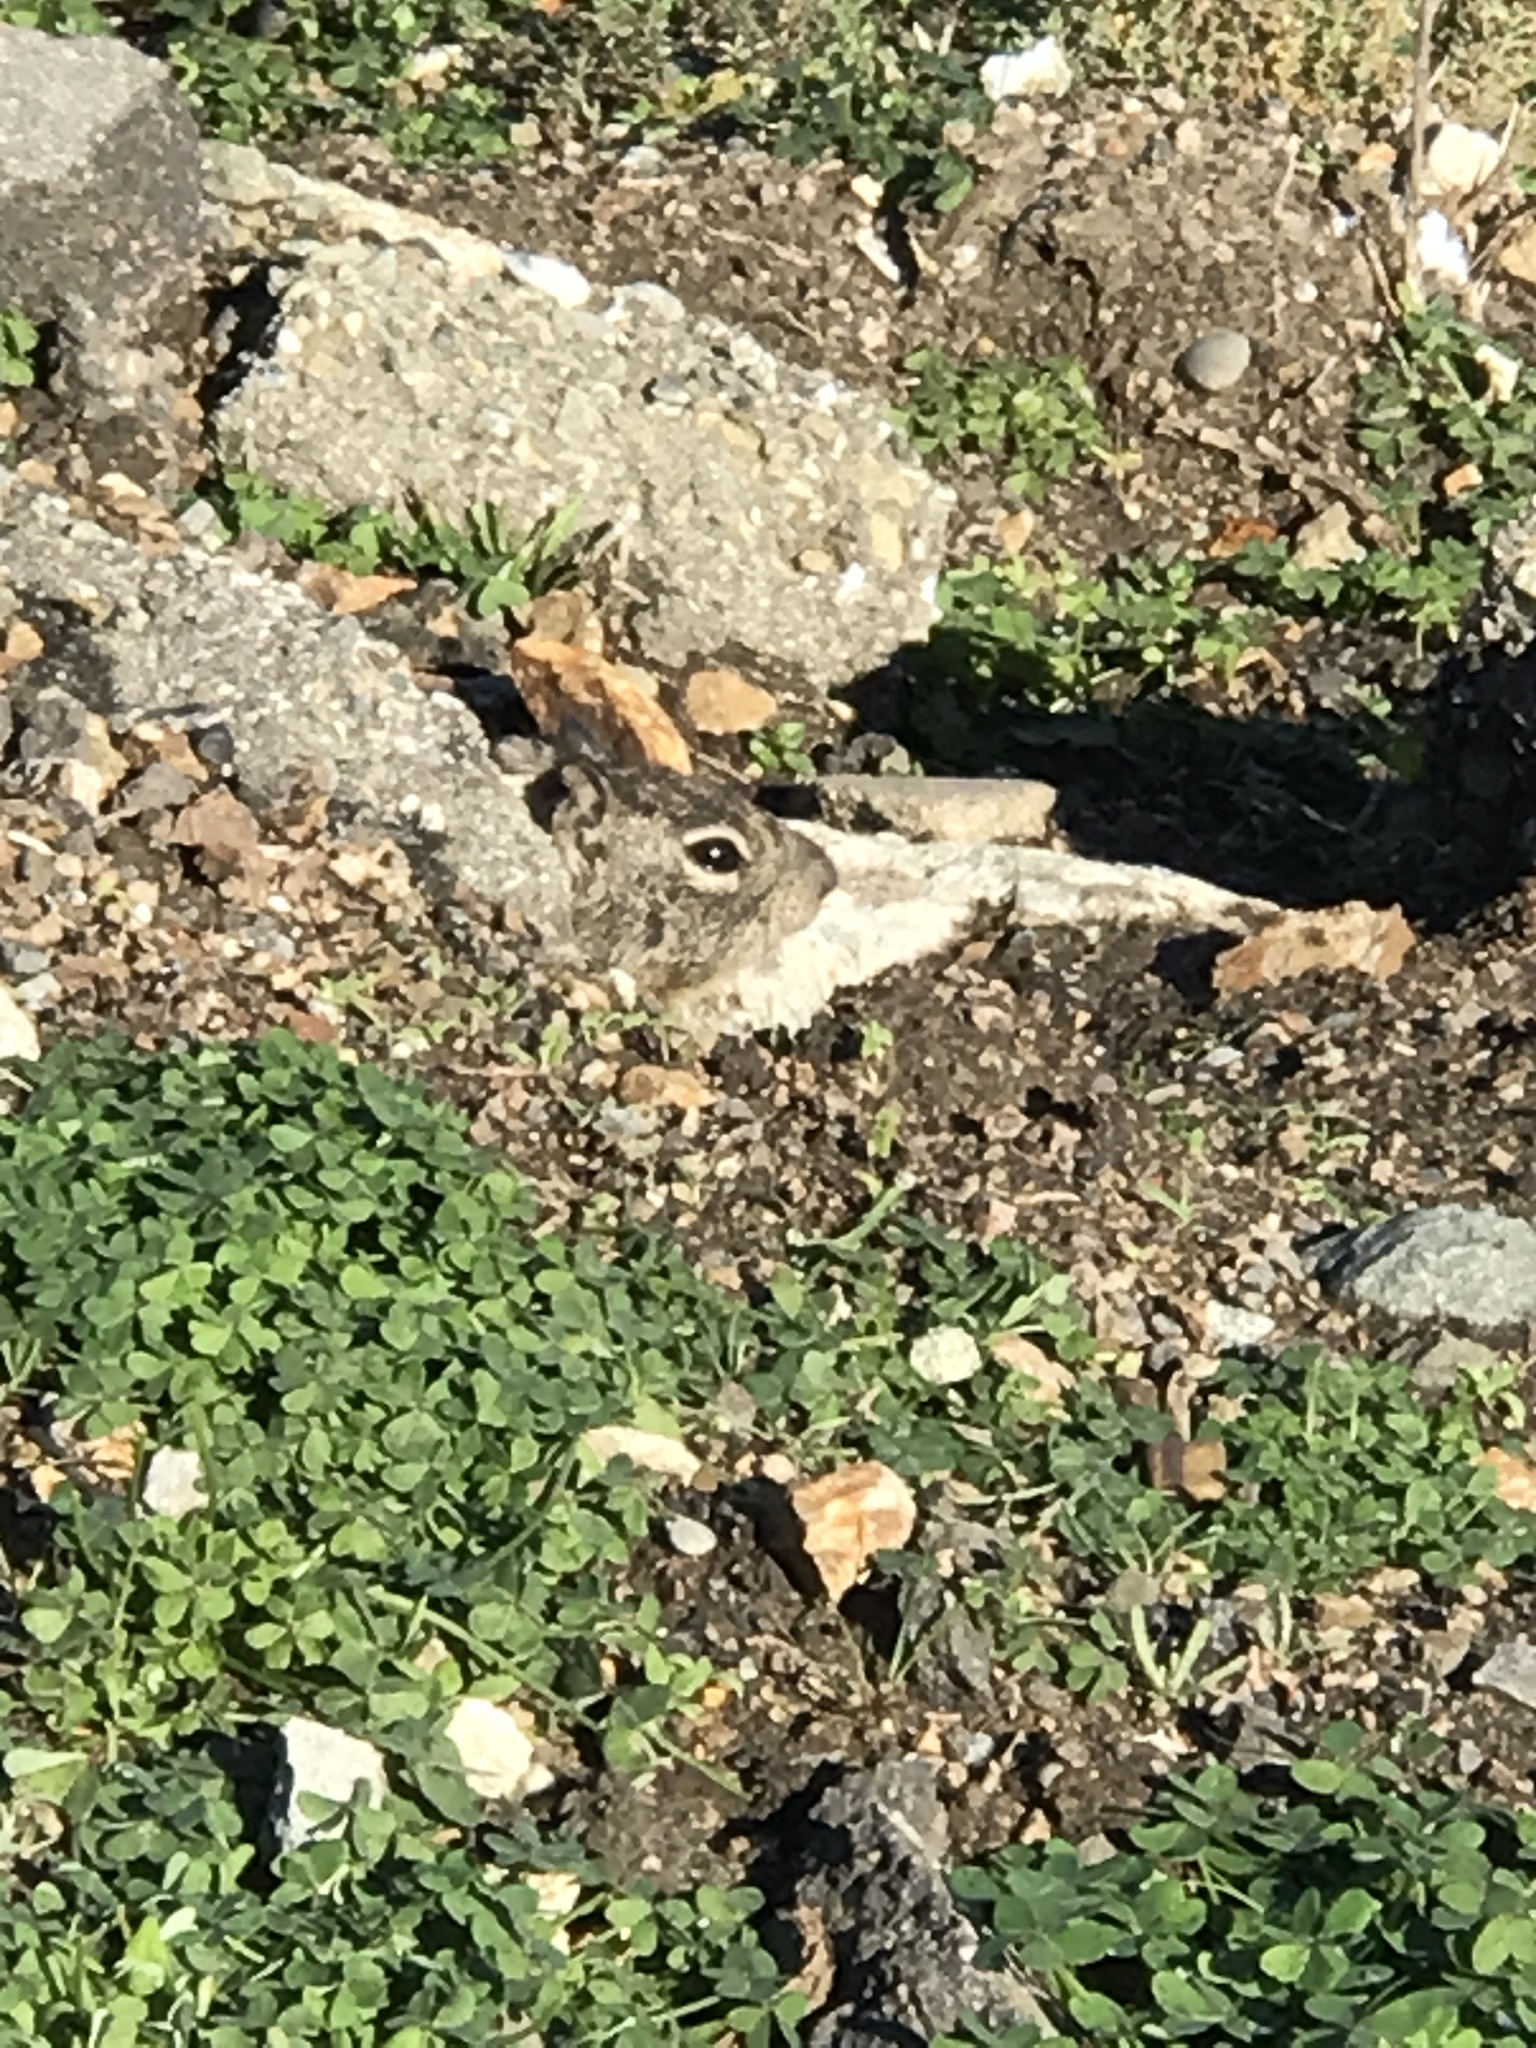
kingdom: Animalia
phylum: Chordata
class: Mammalia
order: Rodentia
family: Sciuridae
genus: Otospermophilus
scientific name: Otospermophilus beecheyi
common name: California ground squirrel
